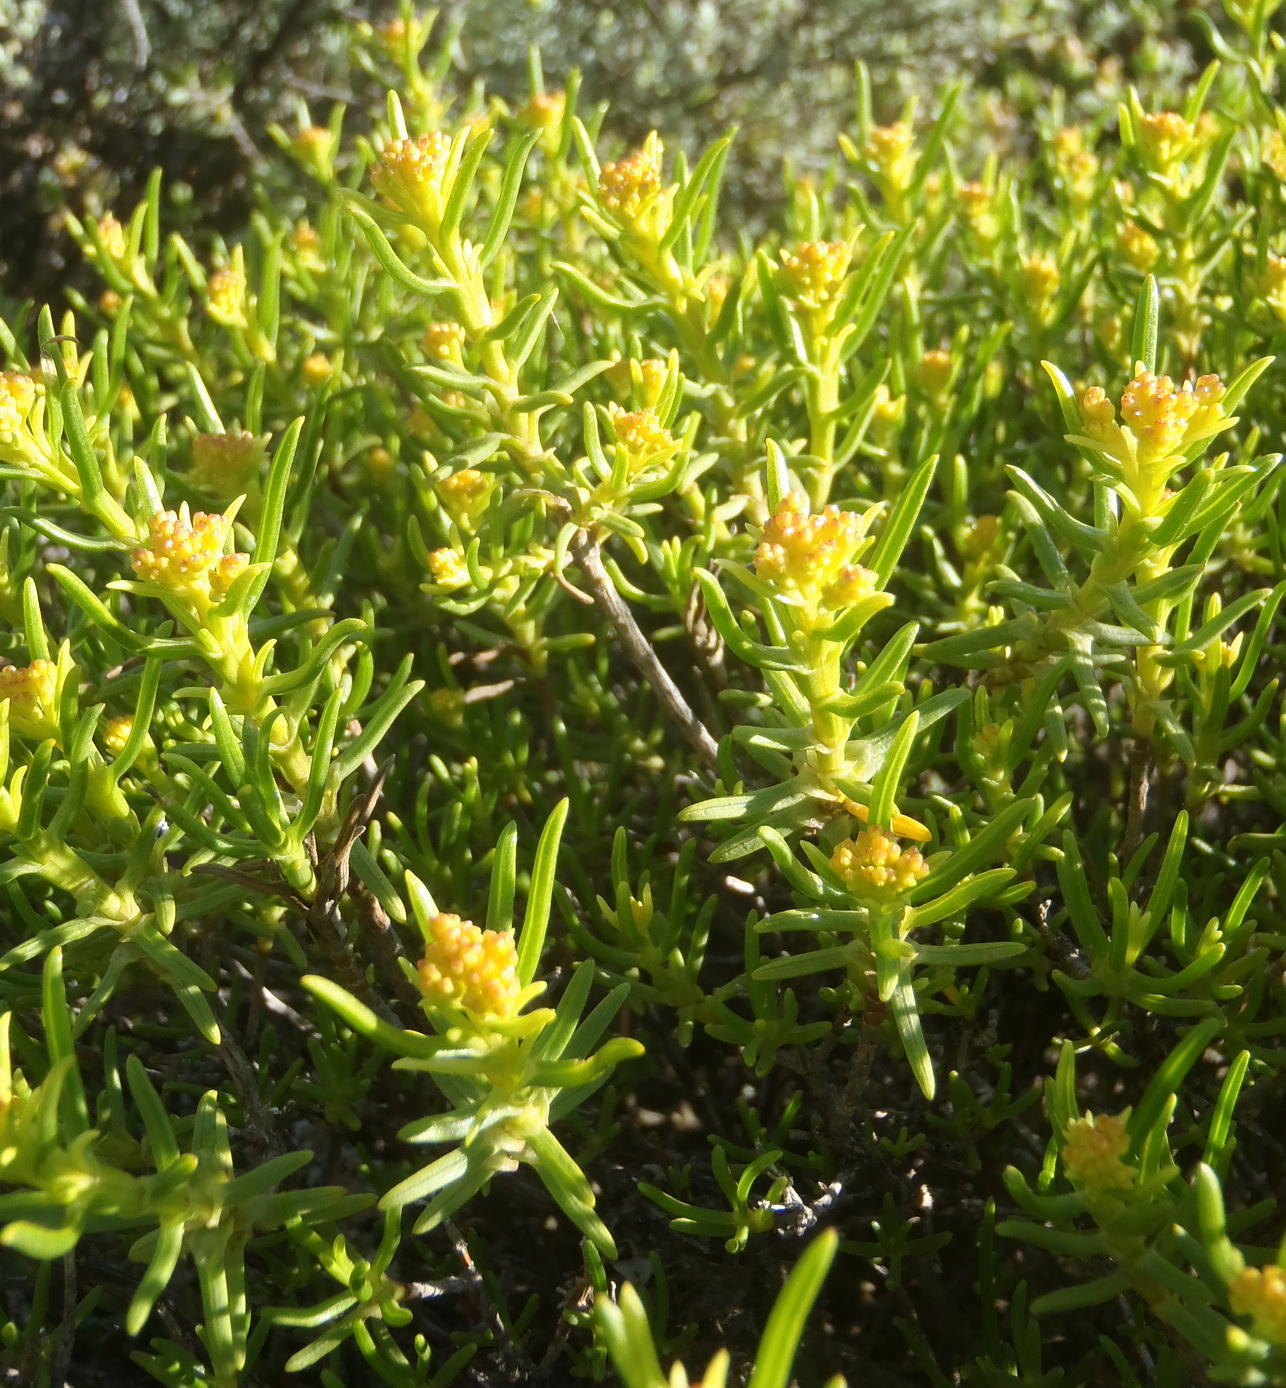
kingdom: Plantae
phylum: Tracheophyta
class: Magnoliopsida
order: Asterales
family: Asteraceae
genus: Pteronia
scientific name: Pteronia paniculata
